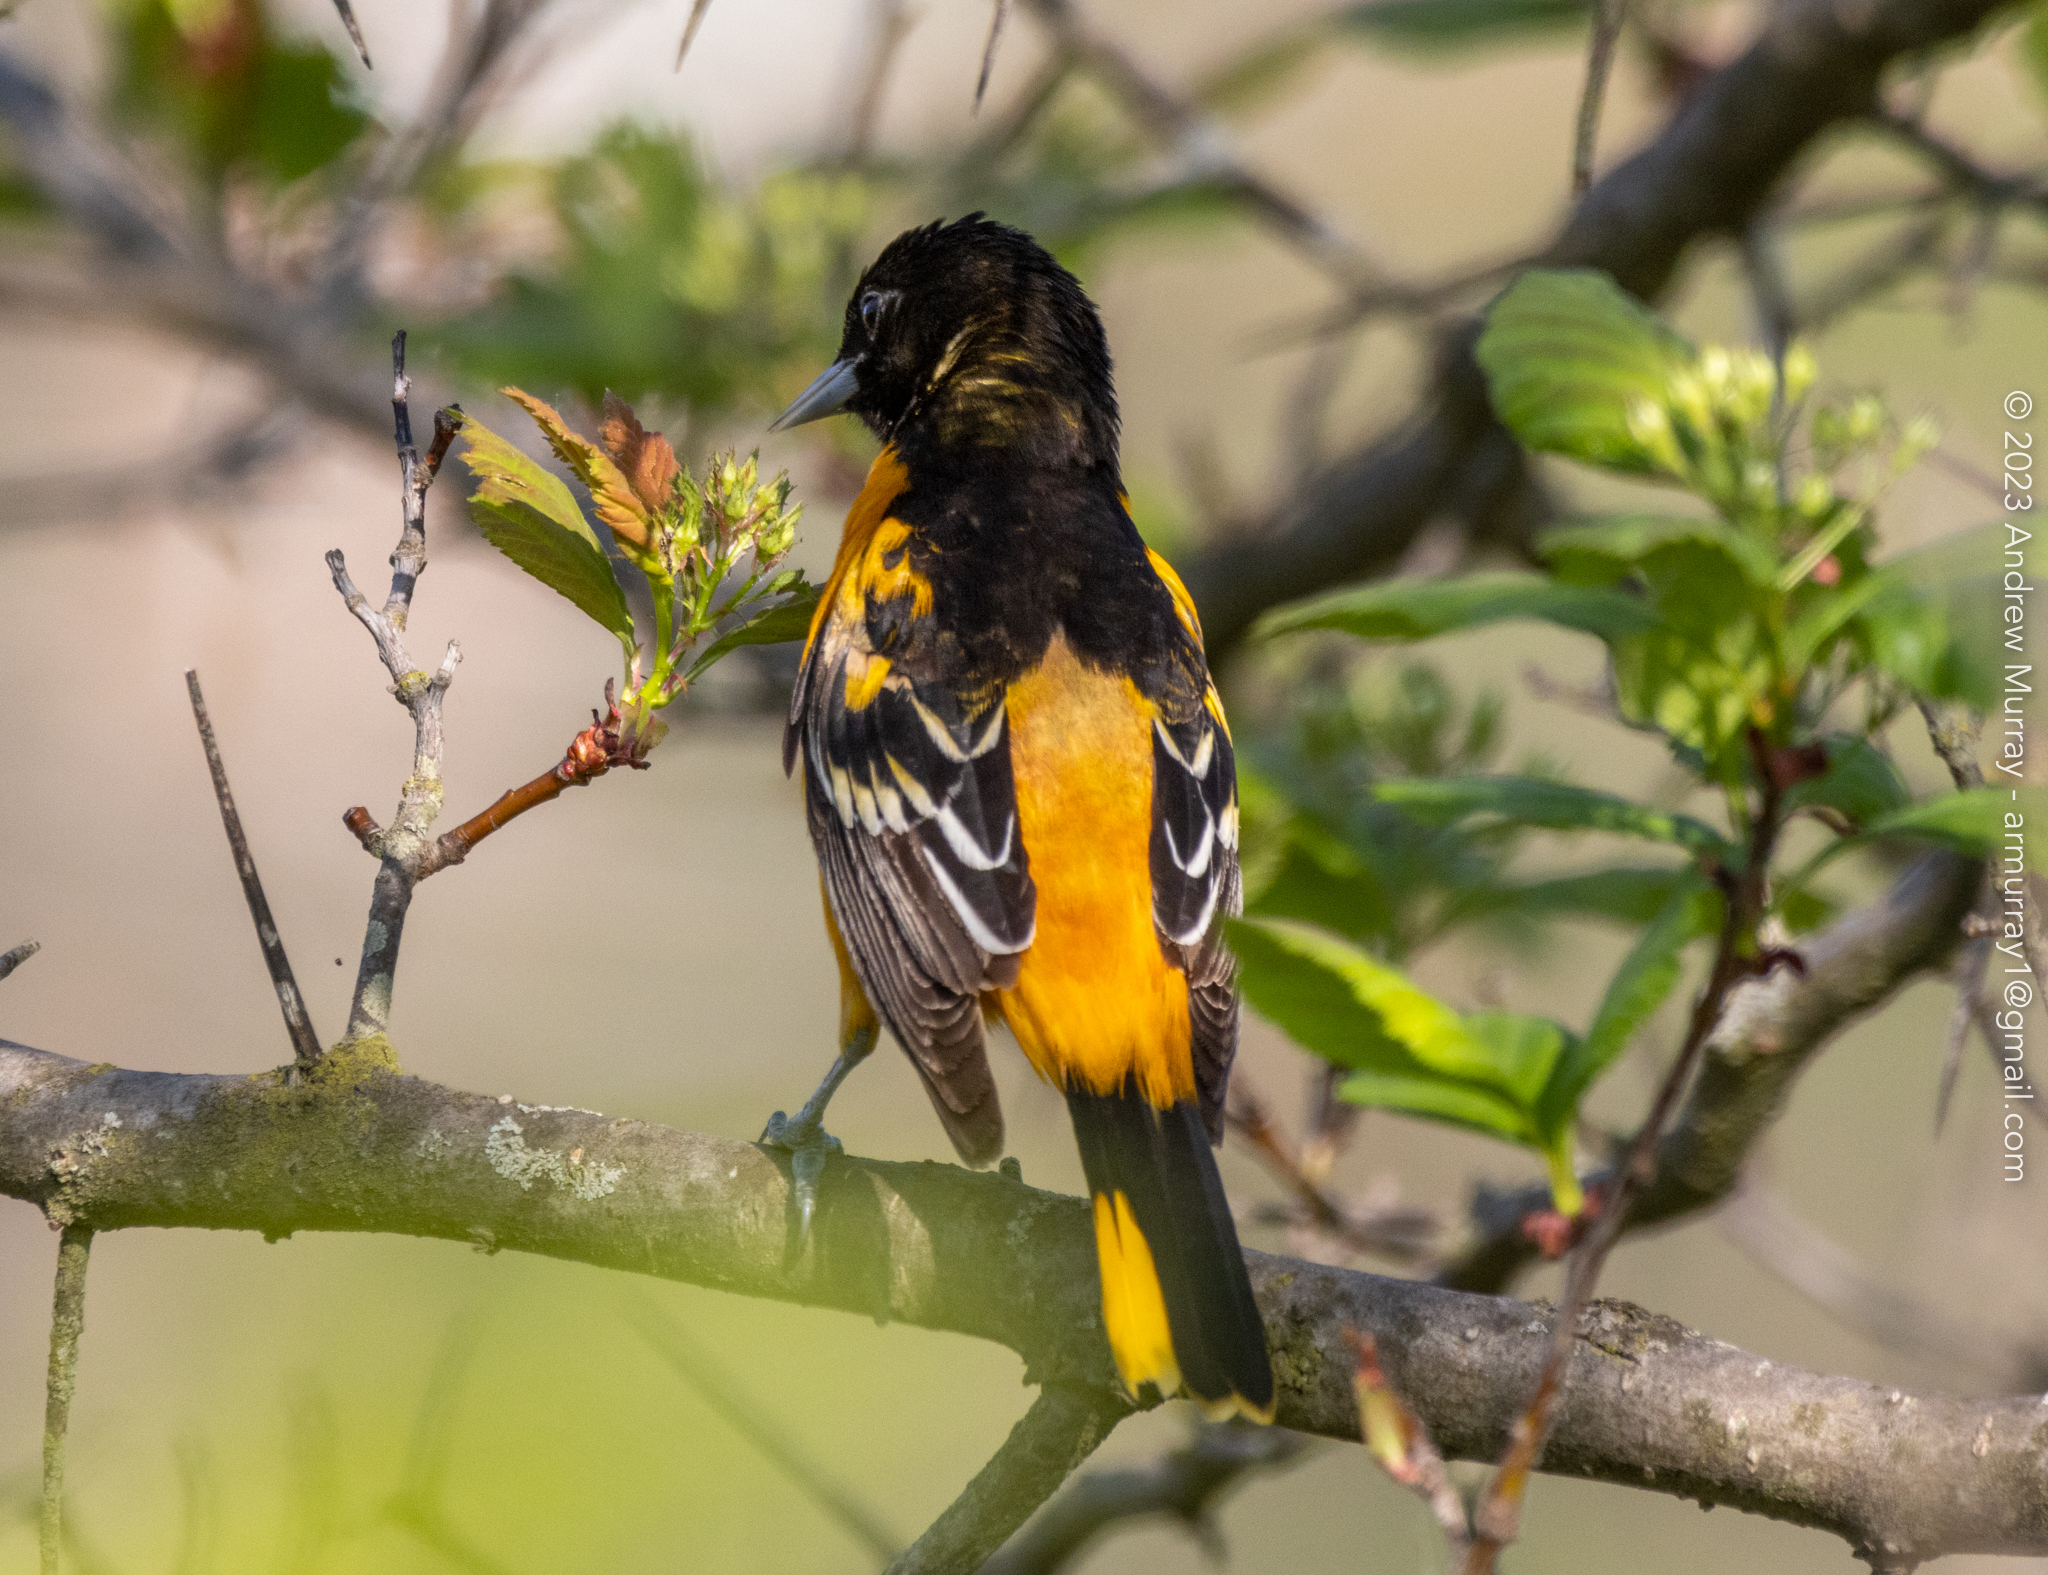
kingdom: Animalia
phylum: Chordata
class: Aves
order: Passeriformes
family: Icteridae
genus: Icterus
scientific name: Icterus galbula
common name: Baltimore oriole
